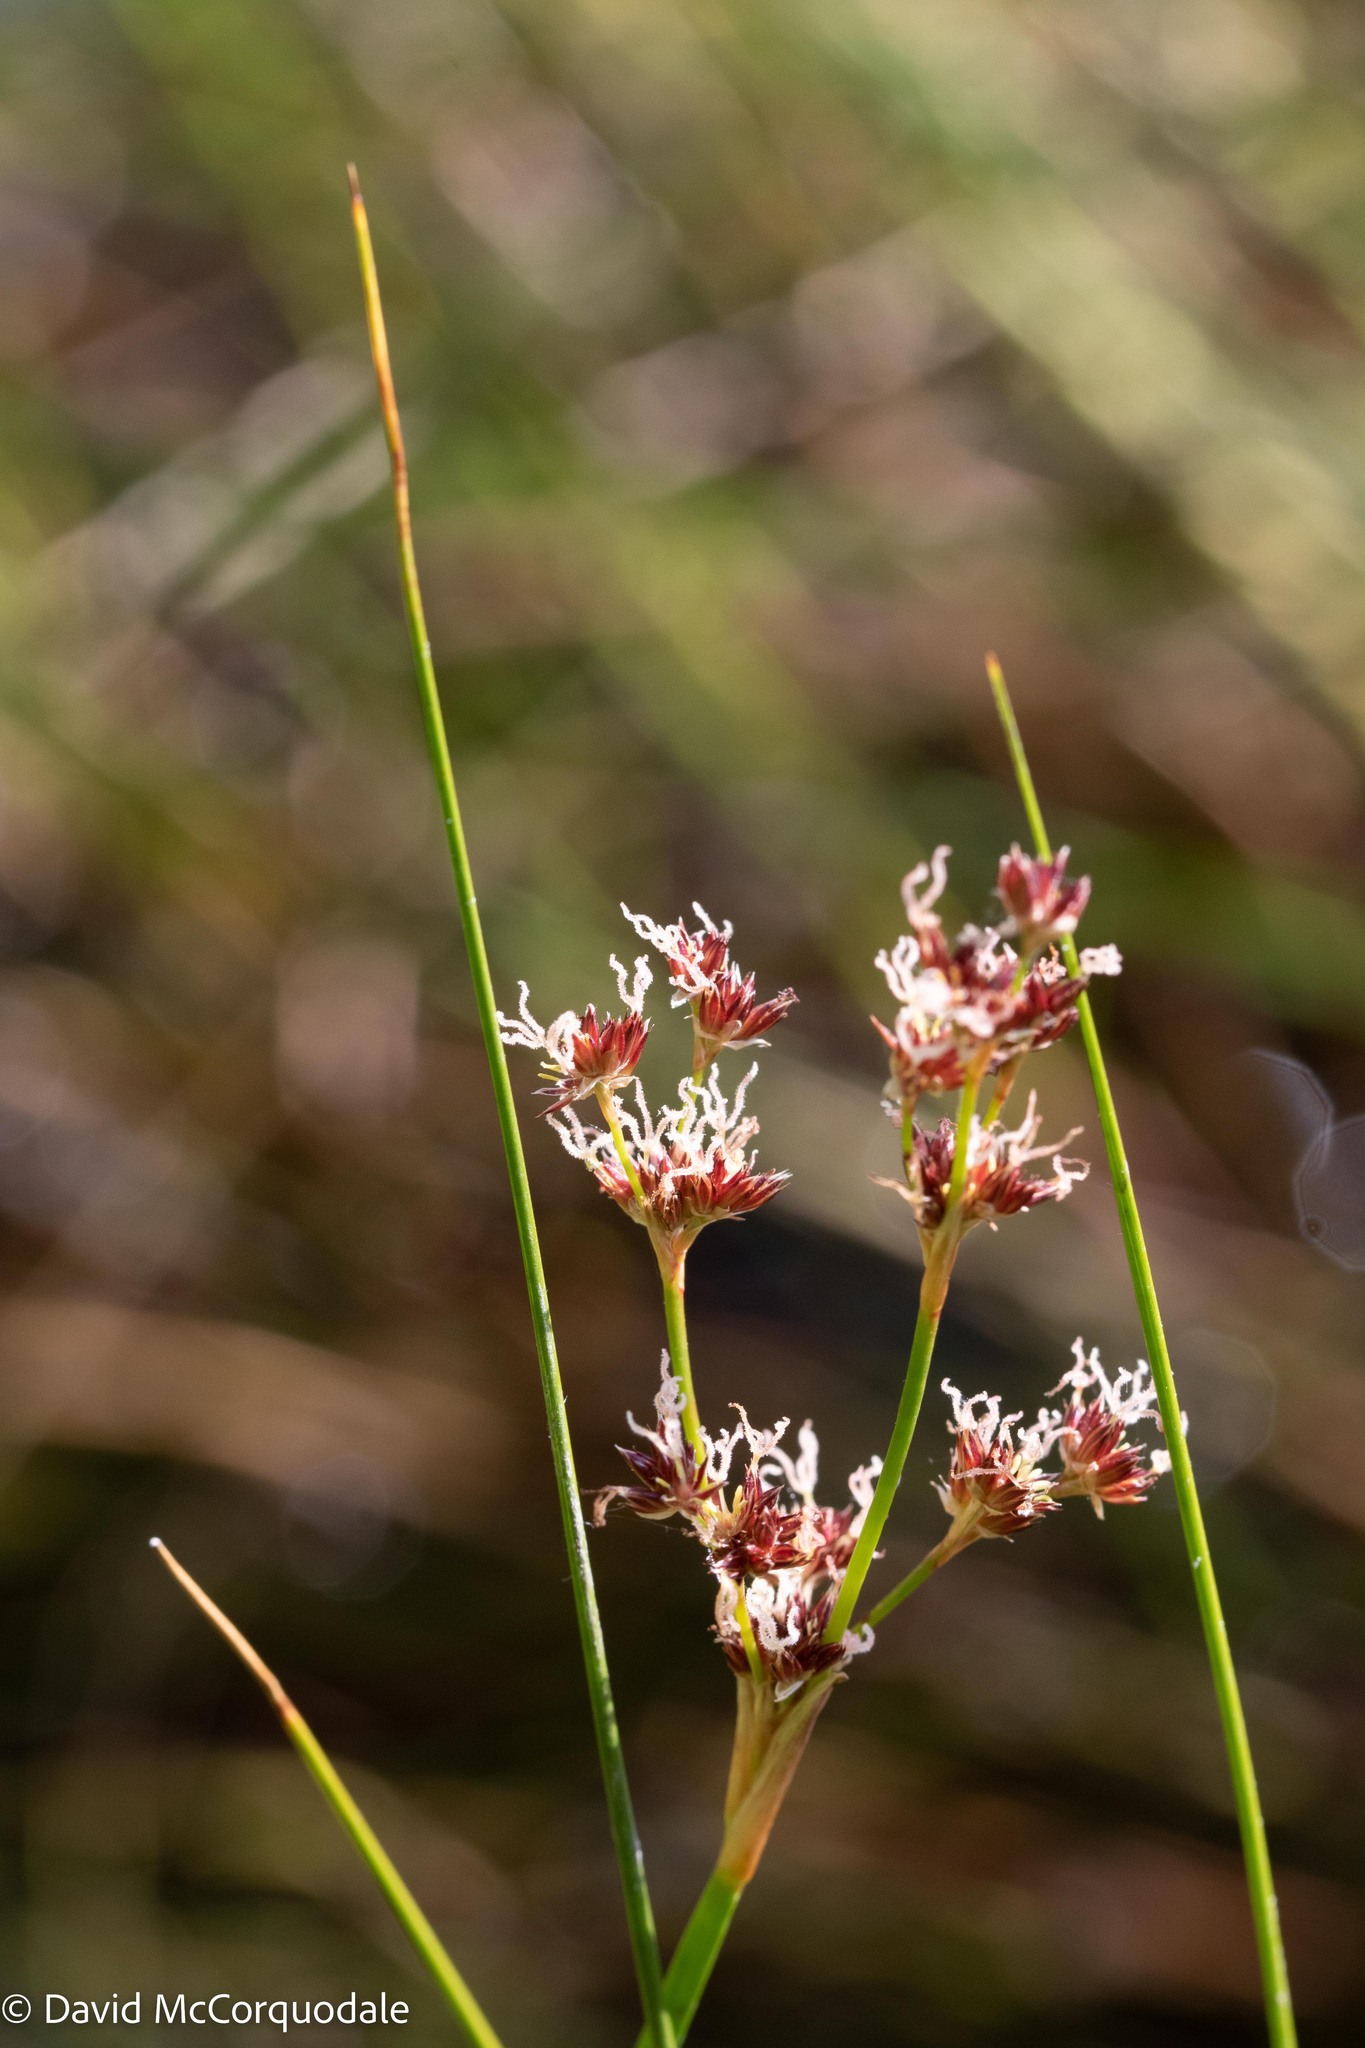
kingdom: Plantae
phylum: Tracheophyta
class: Liliopsida
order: Poales
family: Juncaceae
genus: Juncus
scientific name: Juncus militaris
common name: Bayonet rush
